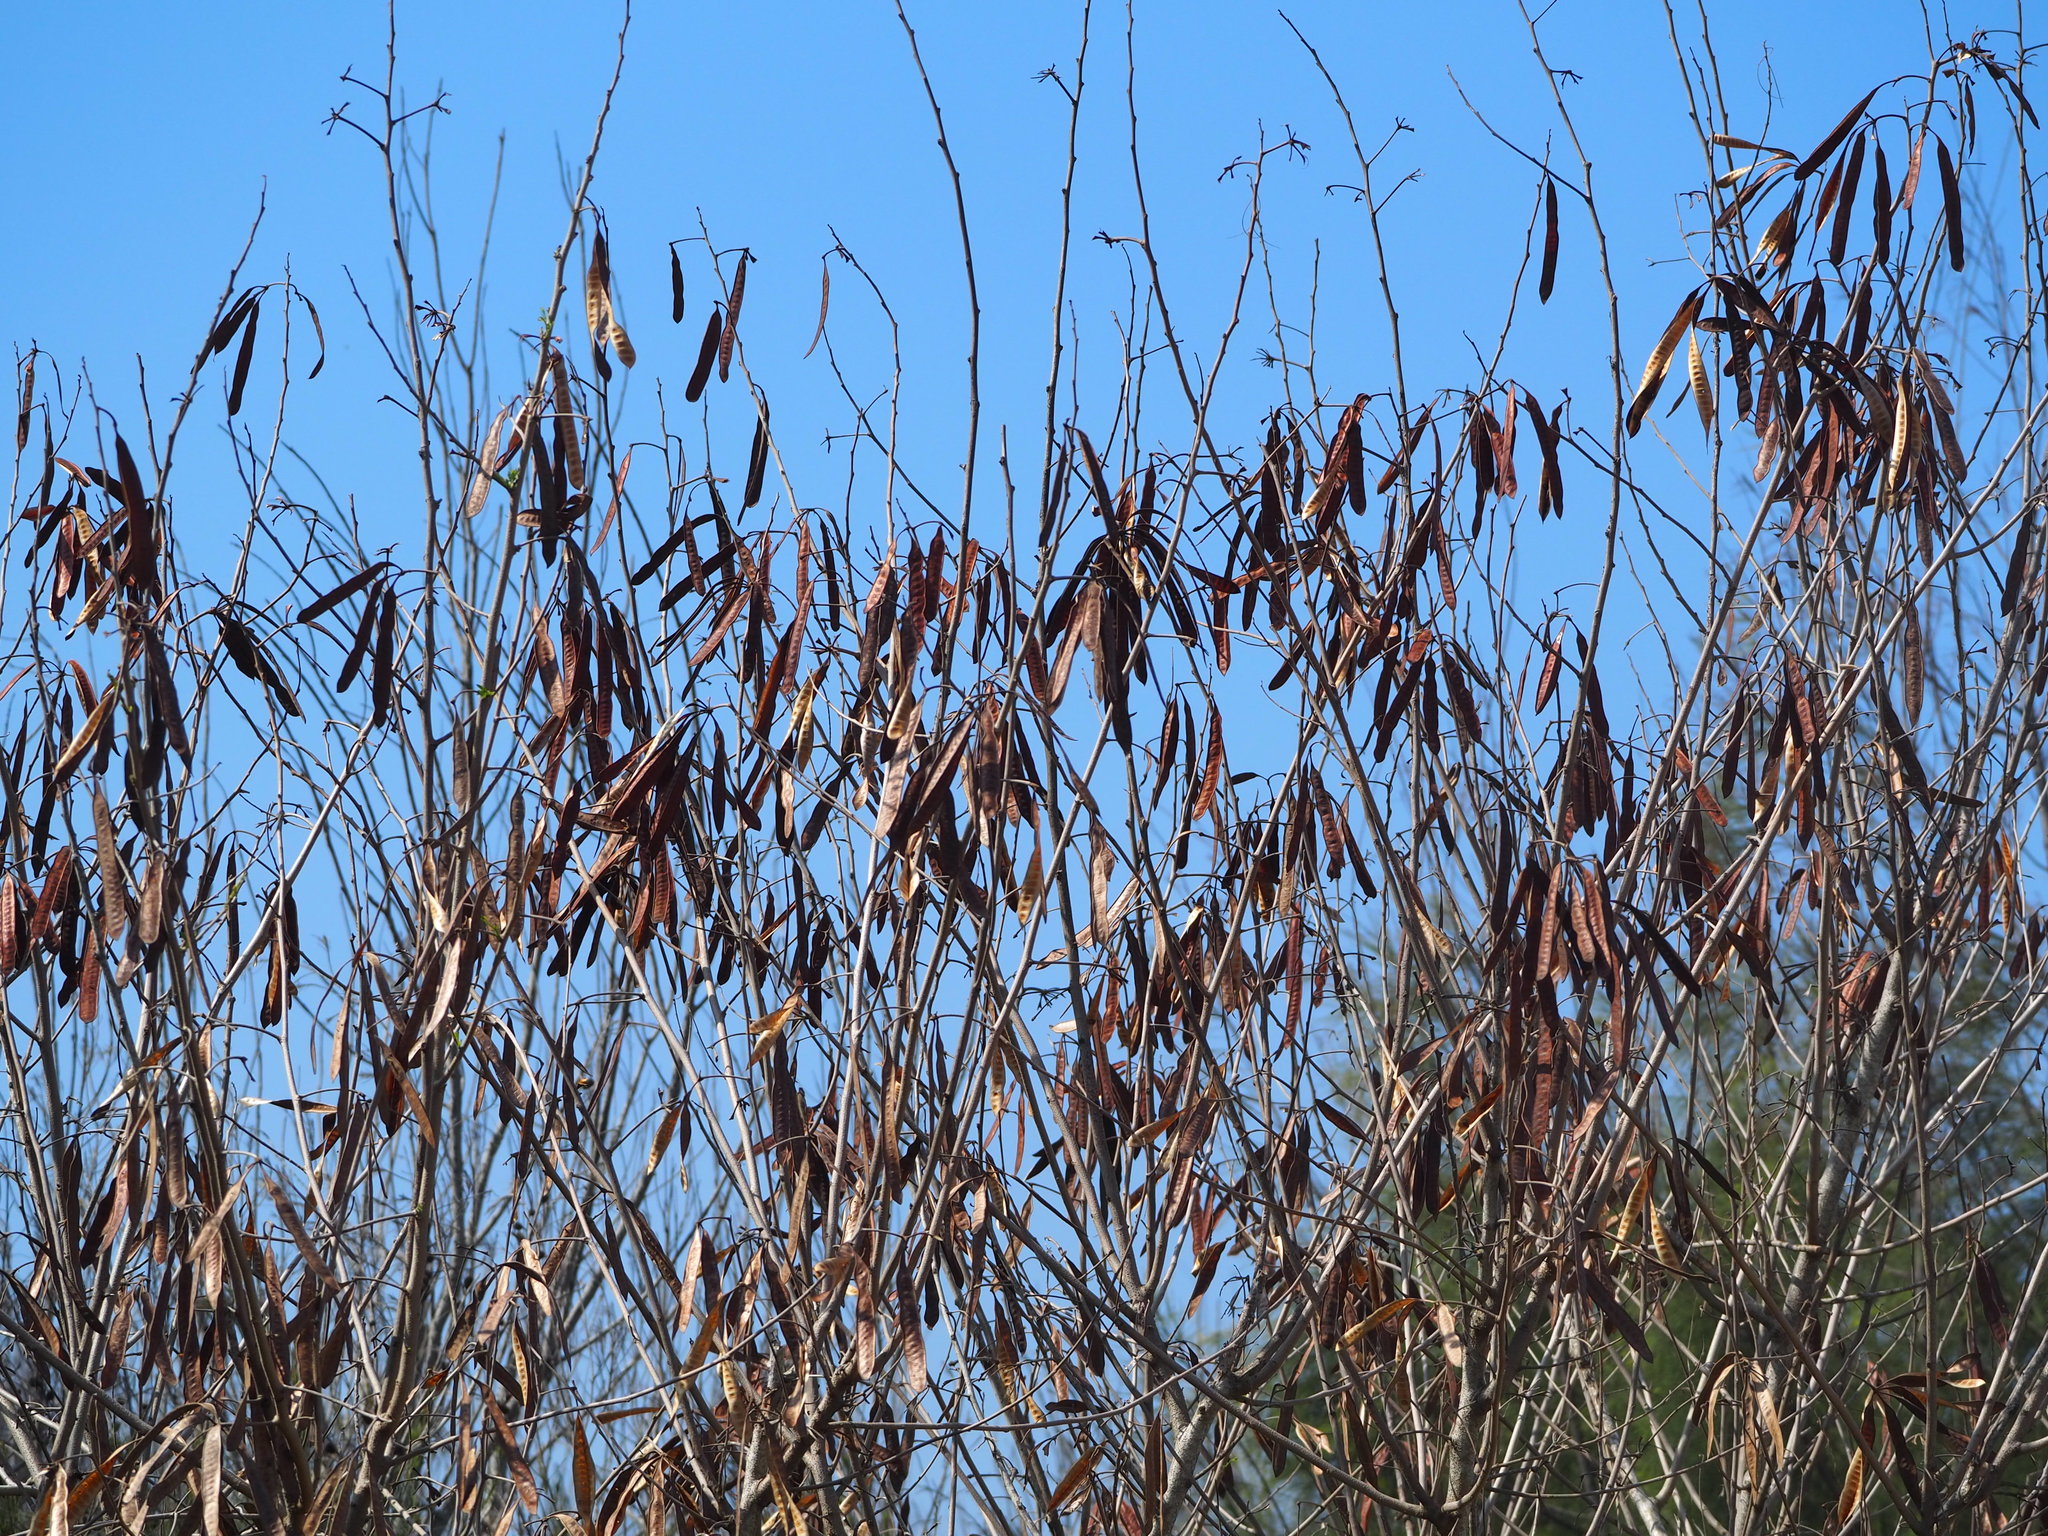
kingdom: Plantae
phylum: Tracheophyta
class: Magnoliopsida
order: Fabales
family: Fabaceae
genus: Leucaena
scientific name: Leucaena leucocephala
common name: White leadtree
